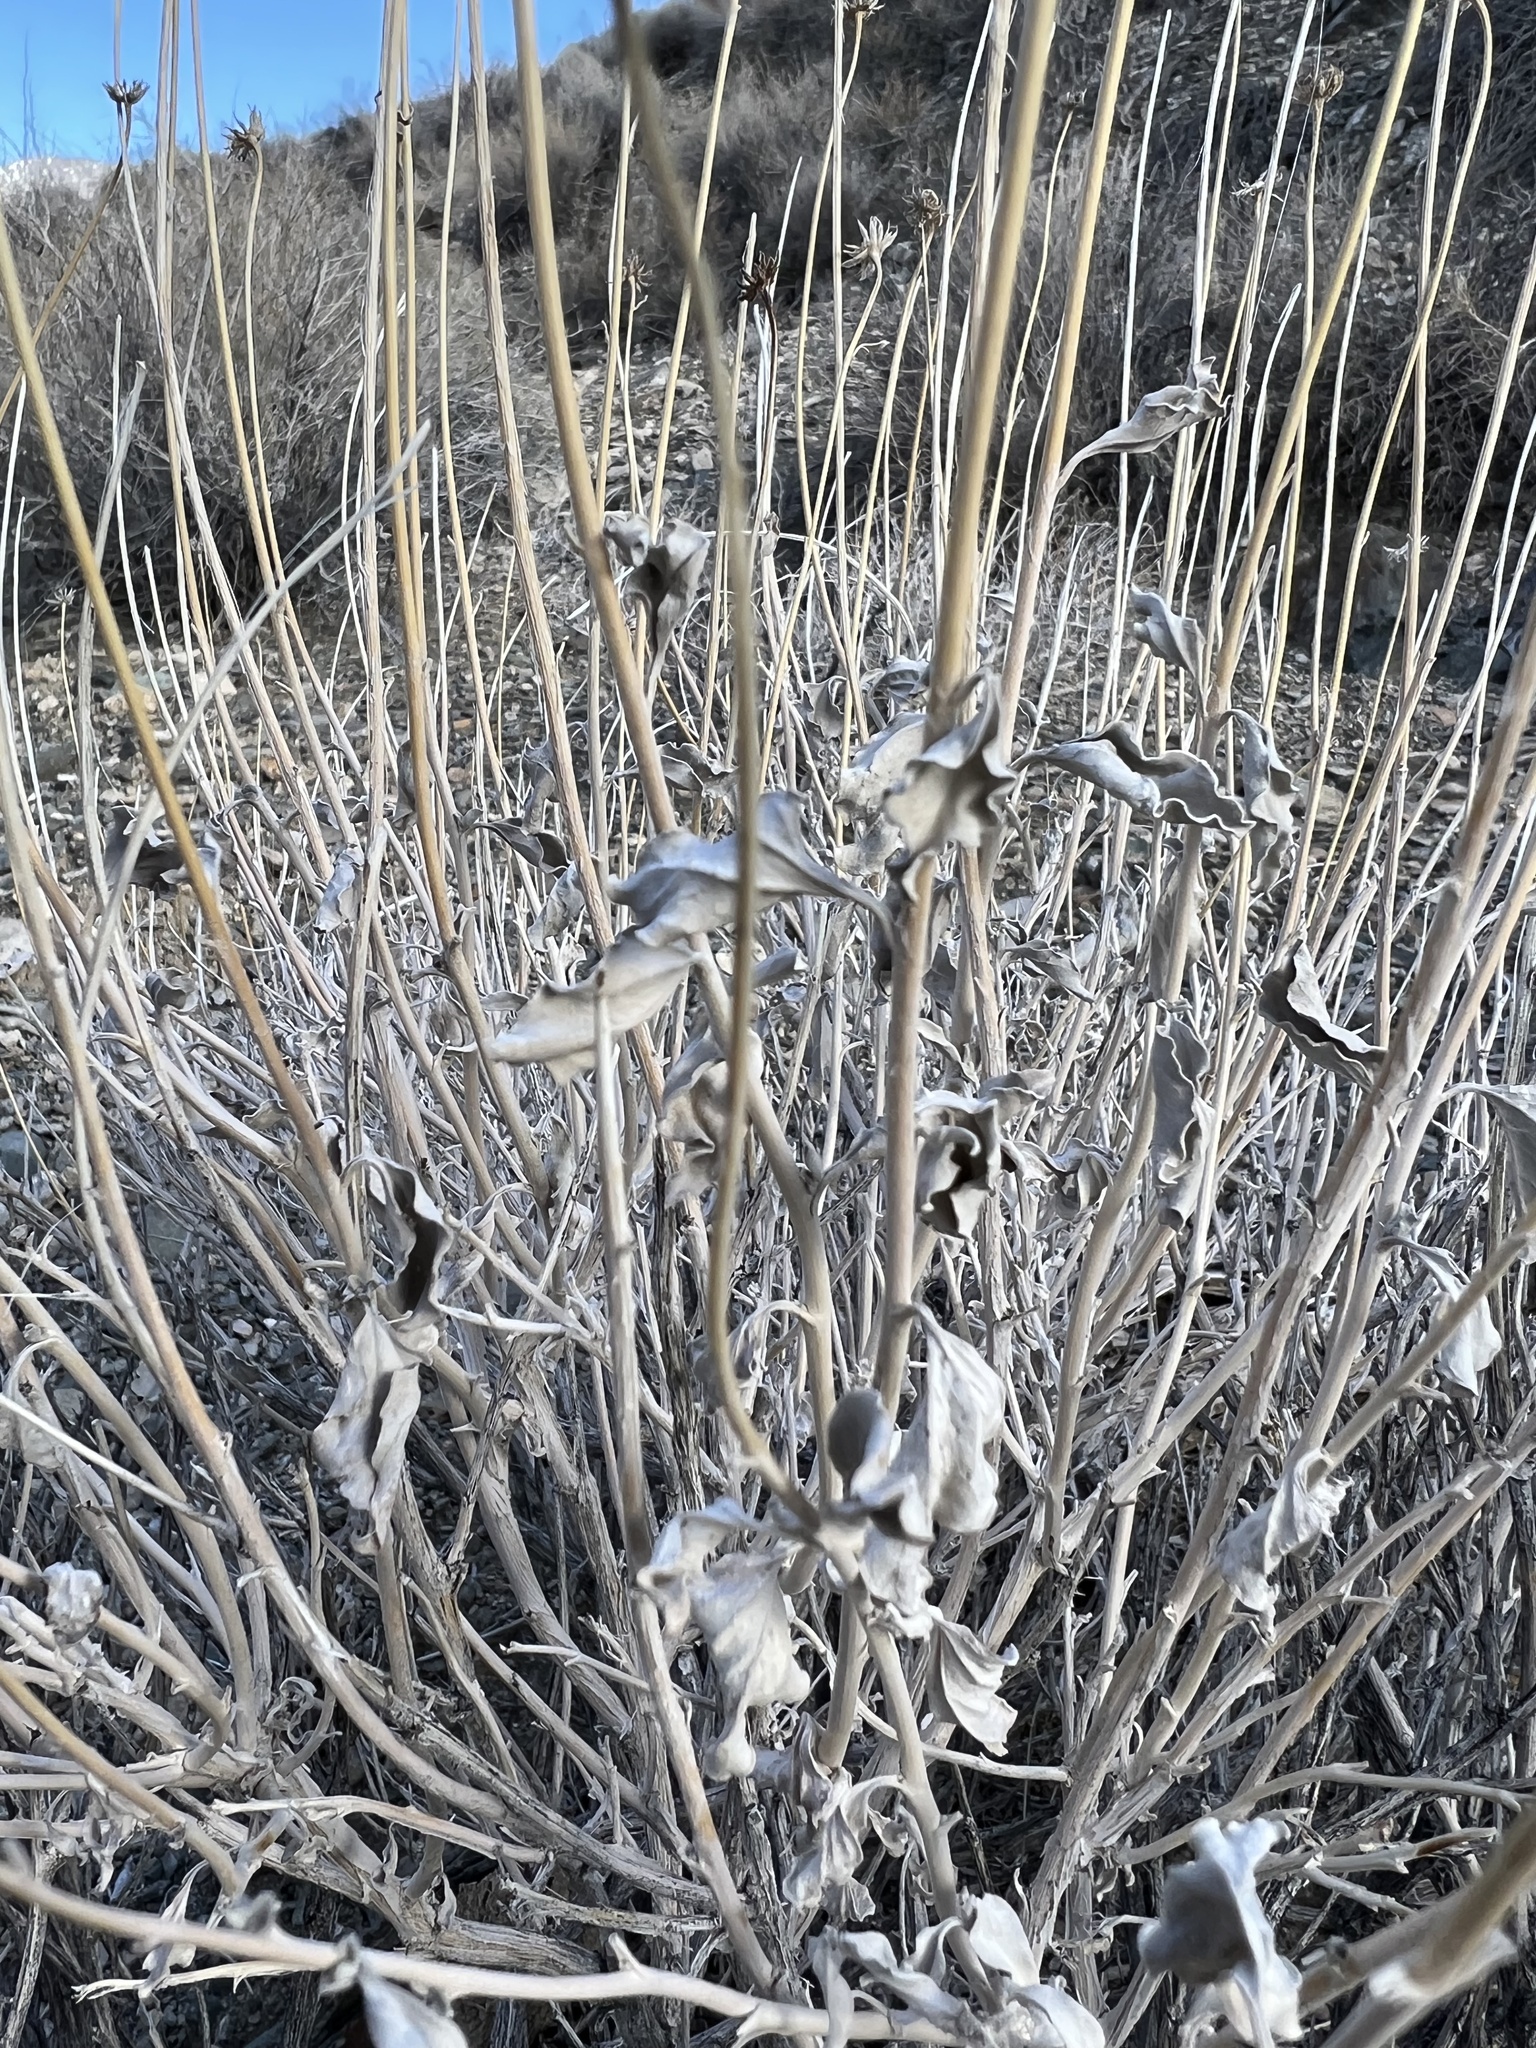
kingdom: Plantae
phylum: Tracheophyta
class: Magnoliopsida
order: Asterales
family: Asteraceae
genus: Encelia
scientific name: Encelia actoni
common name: Acton encelia
